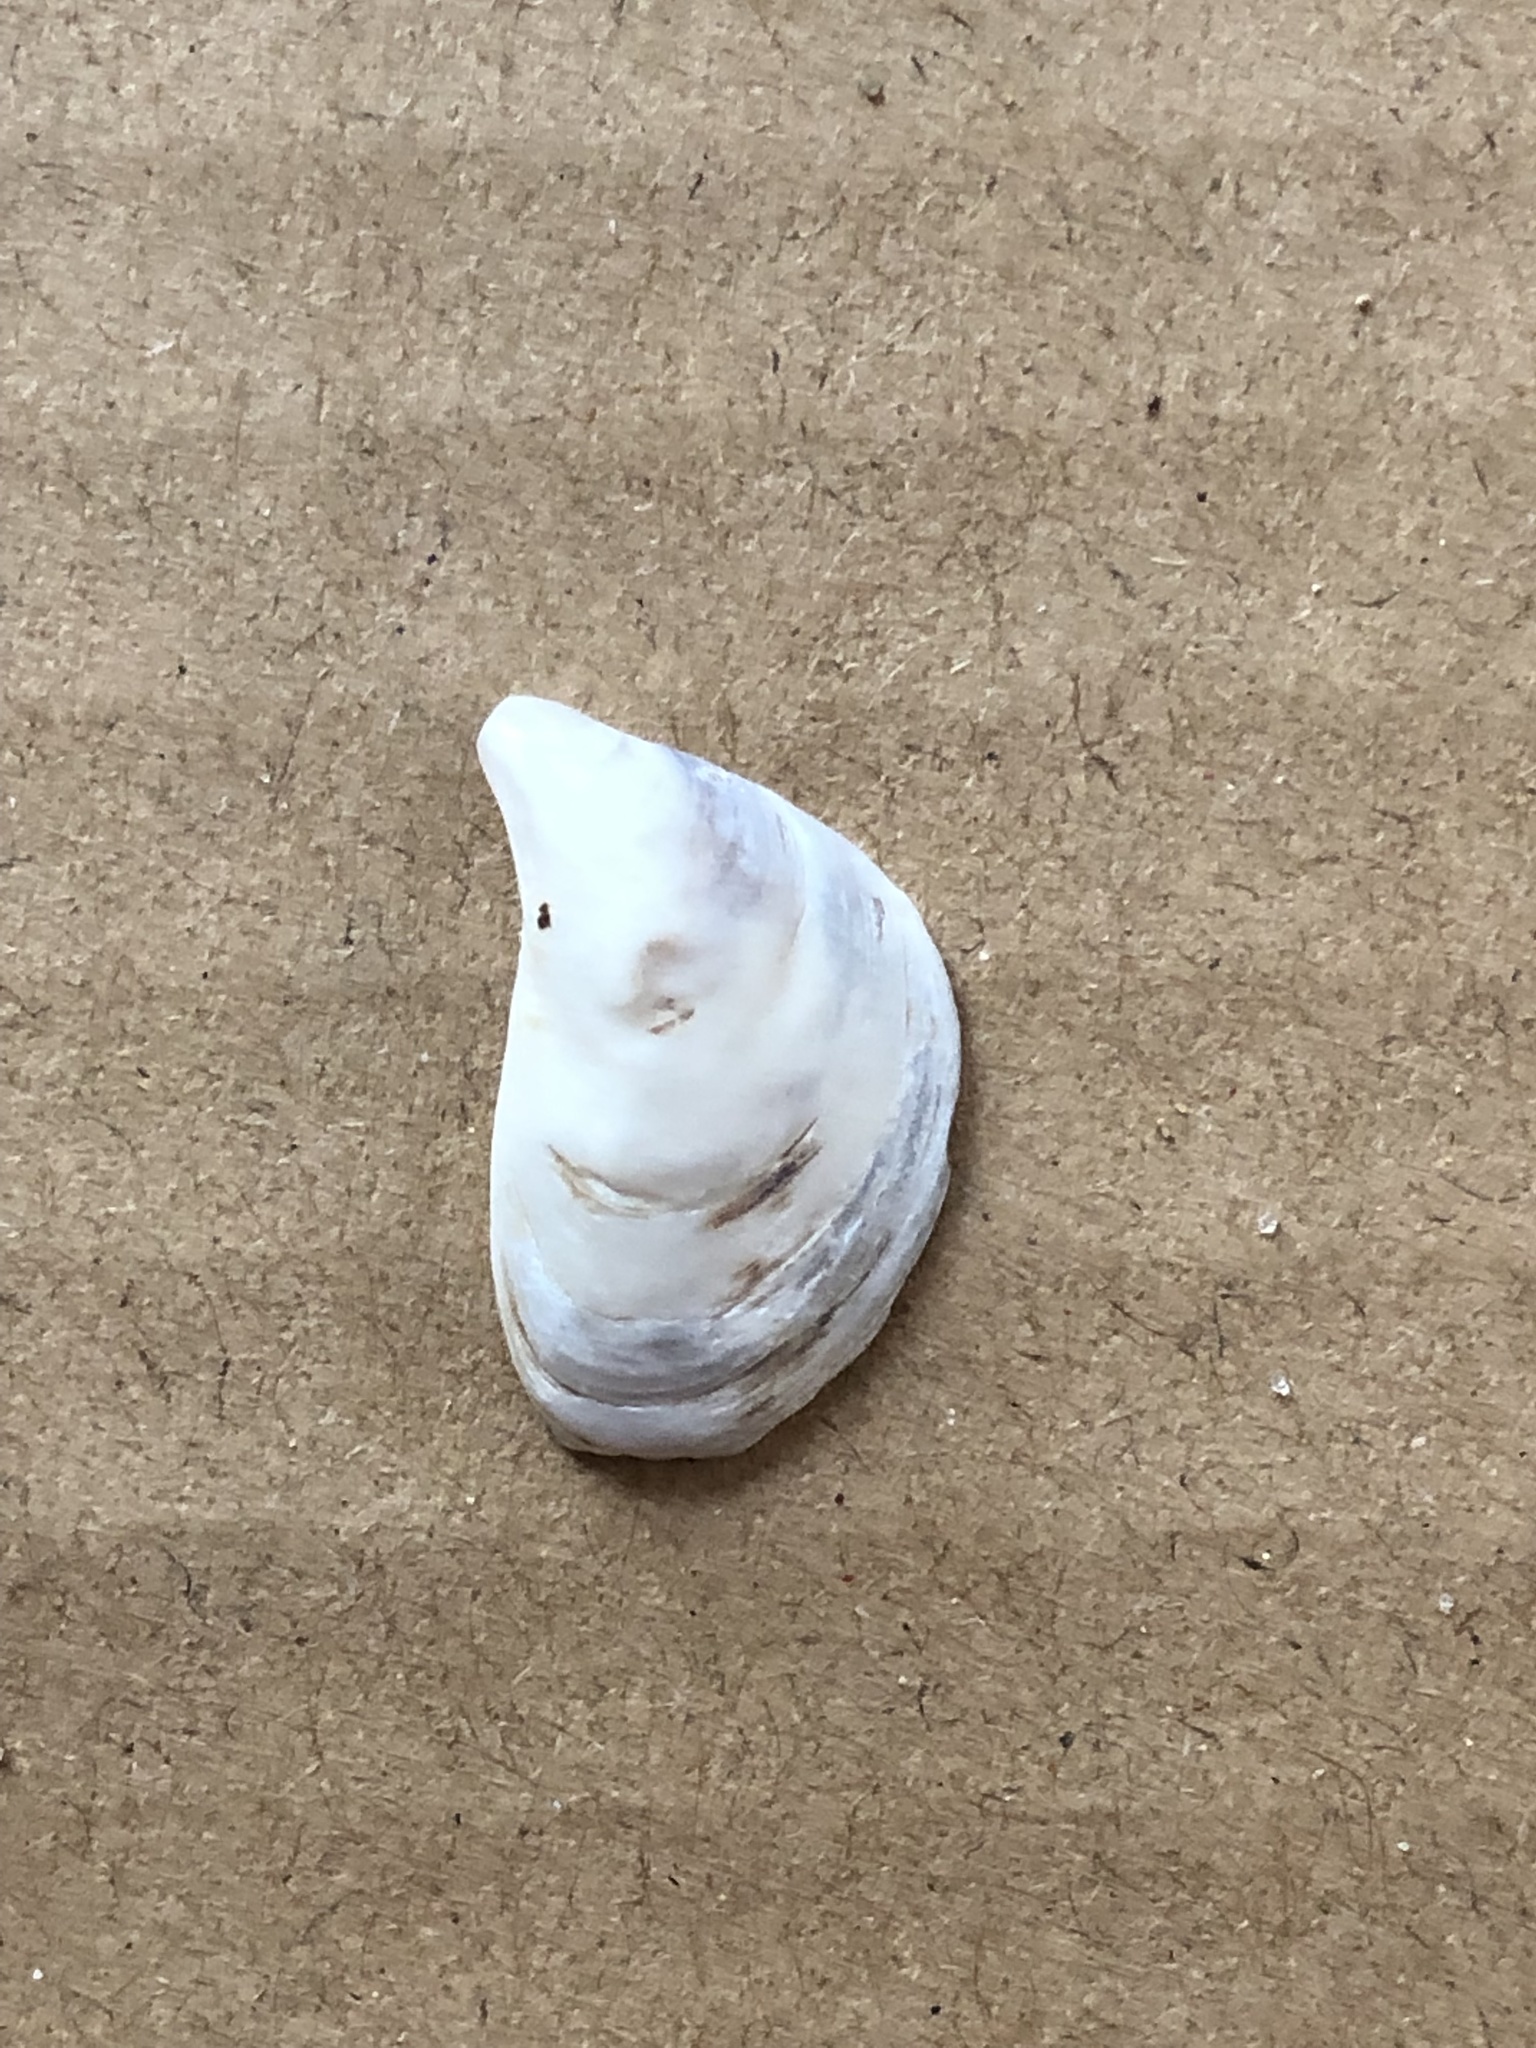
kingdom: Animalia
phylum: Mollusca
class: Bivalvia
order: Myida
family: Dreissenidae
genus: Dreissena
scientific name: Dreissena bugensis
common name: Quagga mussel
